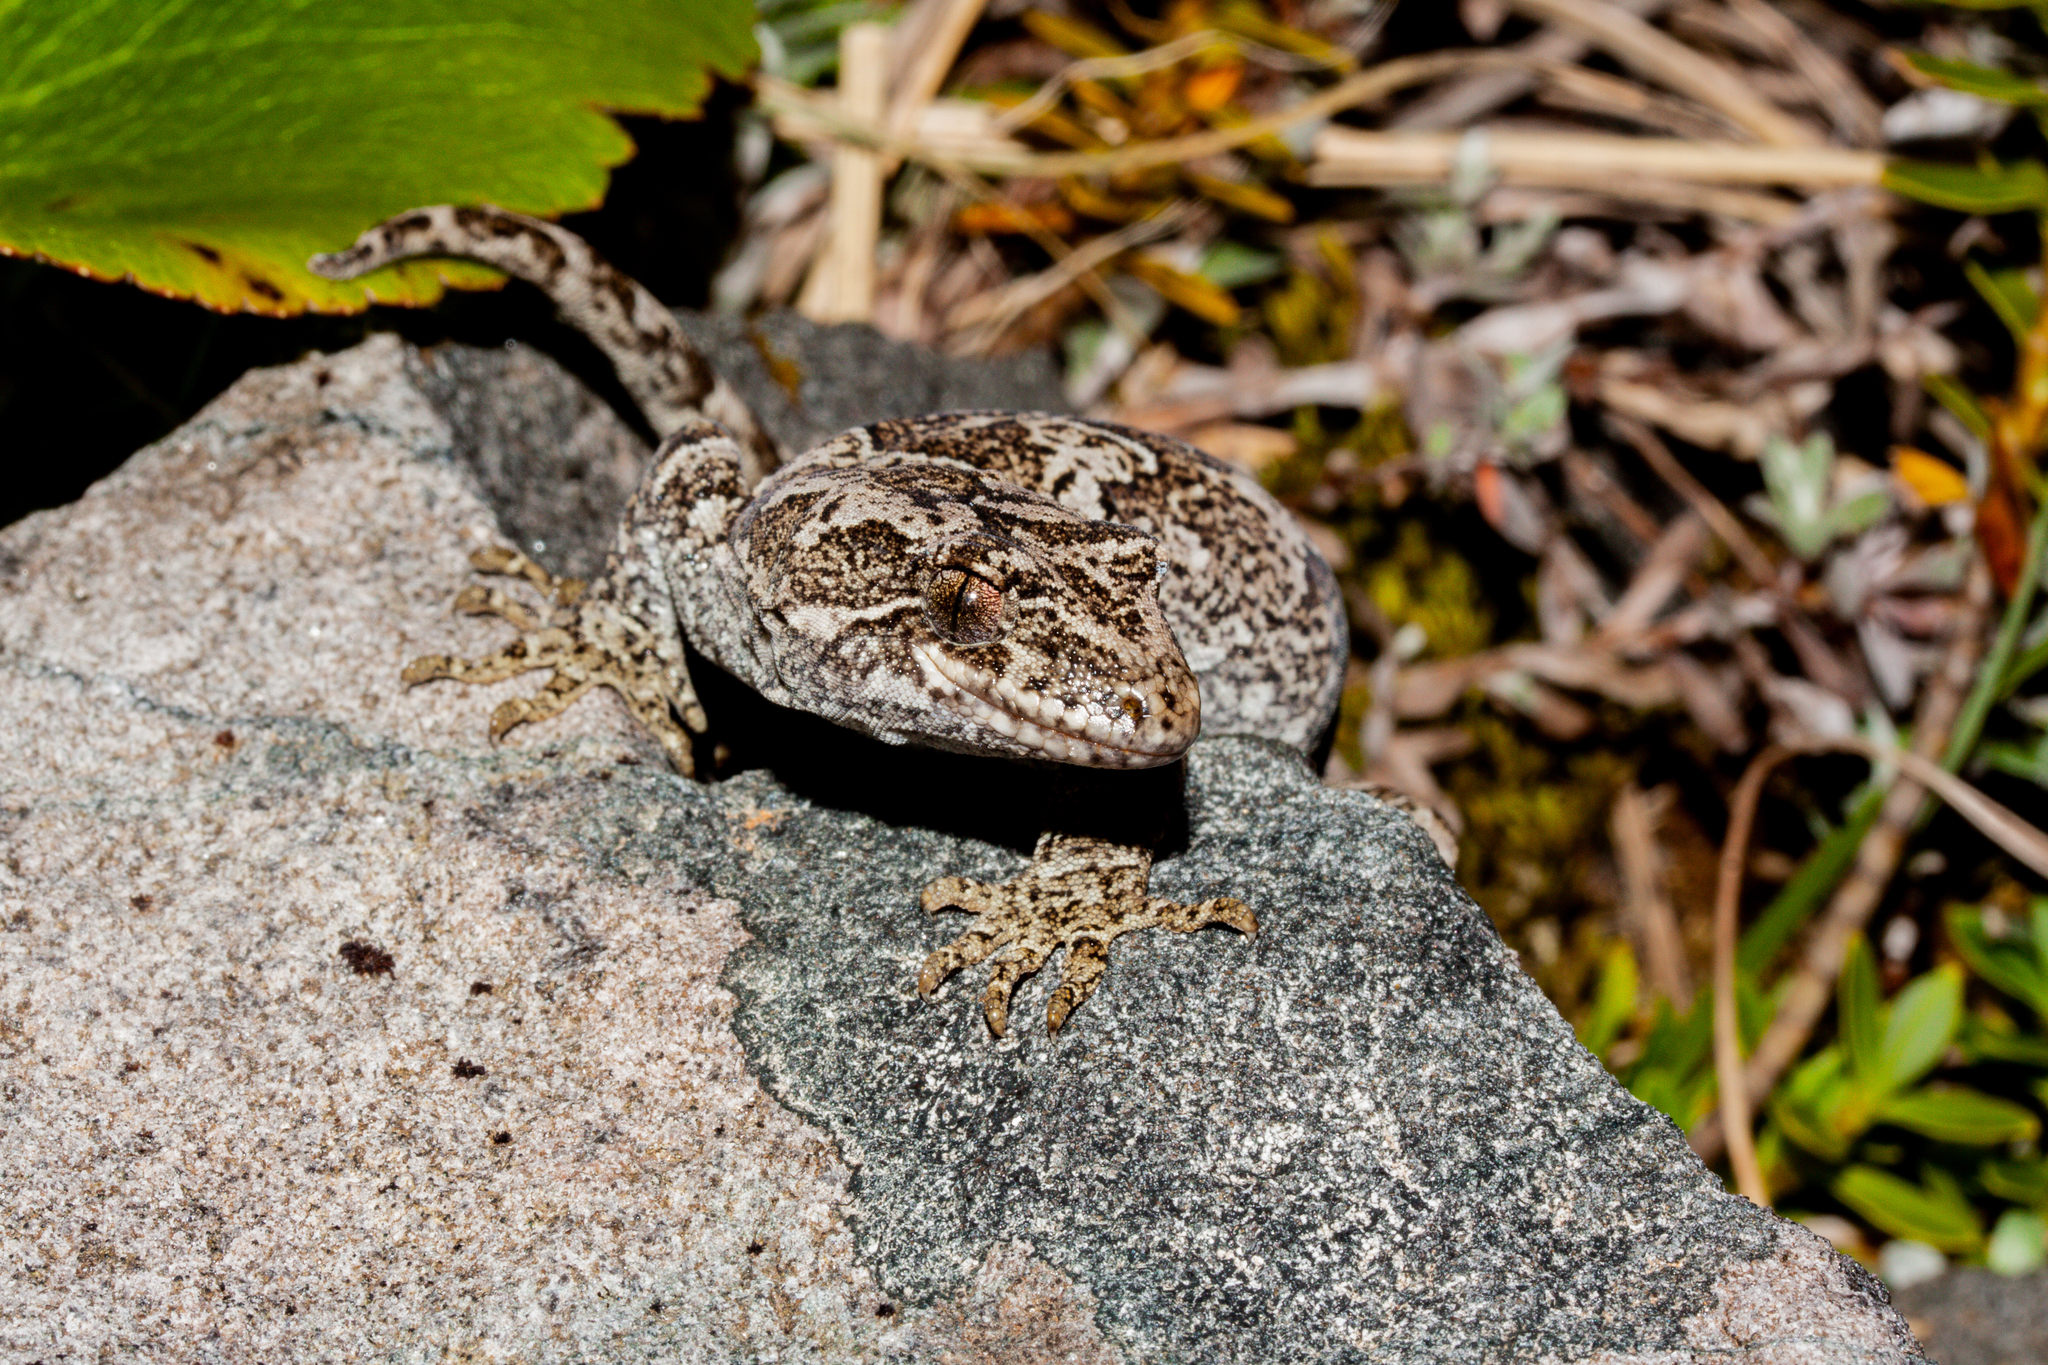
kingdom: Animalia
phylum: Chordata
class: Squamata
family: Diplodactylidae
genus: Mokopirirakau
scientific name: Mokopirirakau
